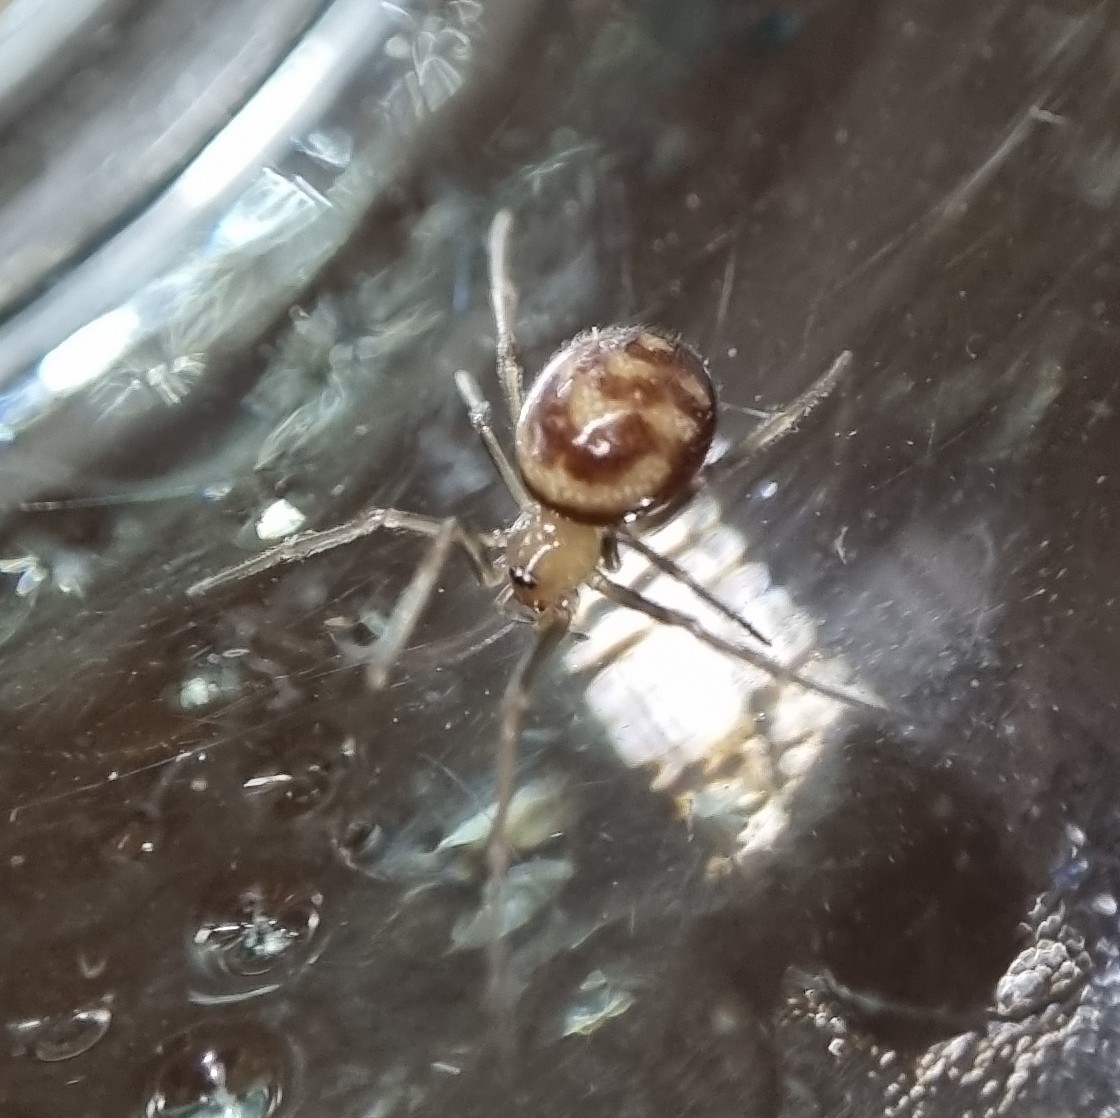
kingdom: Animalia
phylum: Arthropoda
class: Arachnida
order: Araneae
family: Theridiidae
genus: Steatoda
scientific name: Steatoda grossa
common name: False black widow
